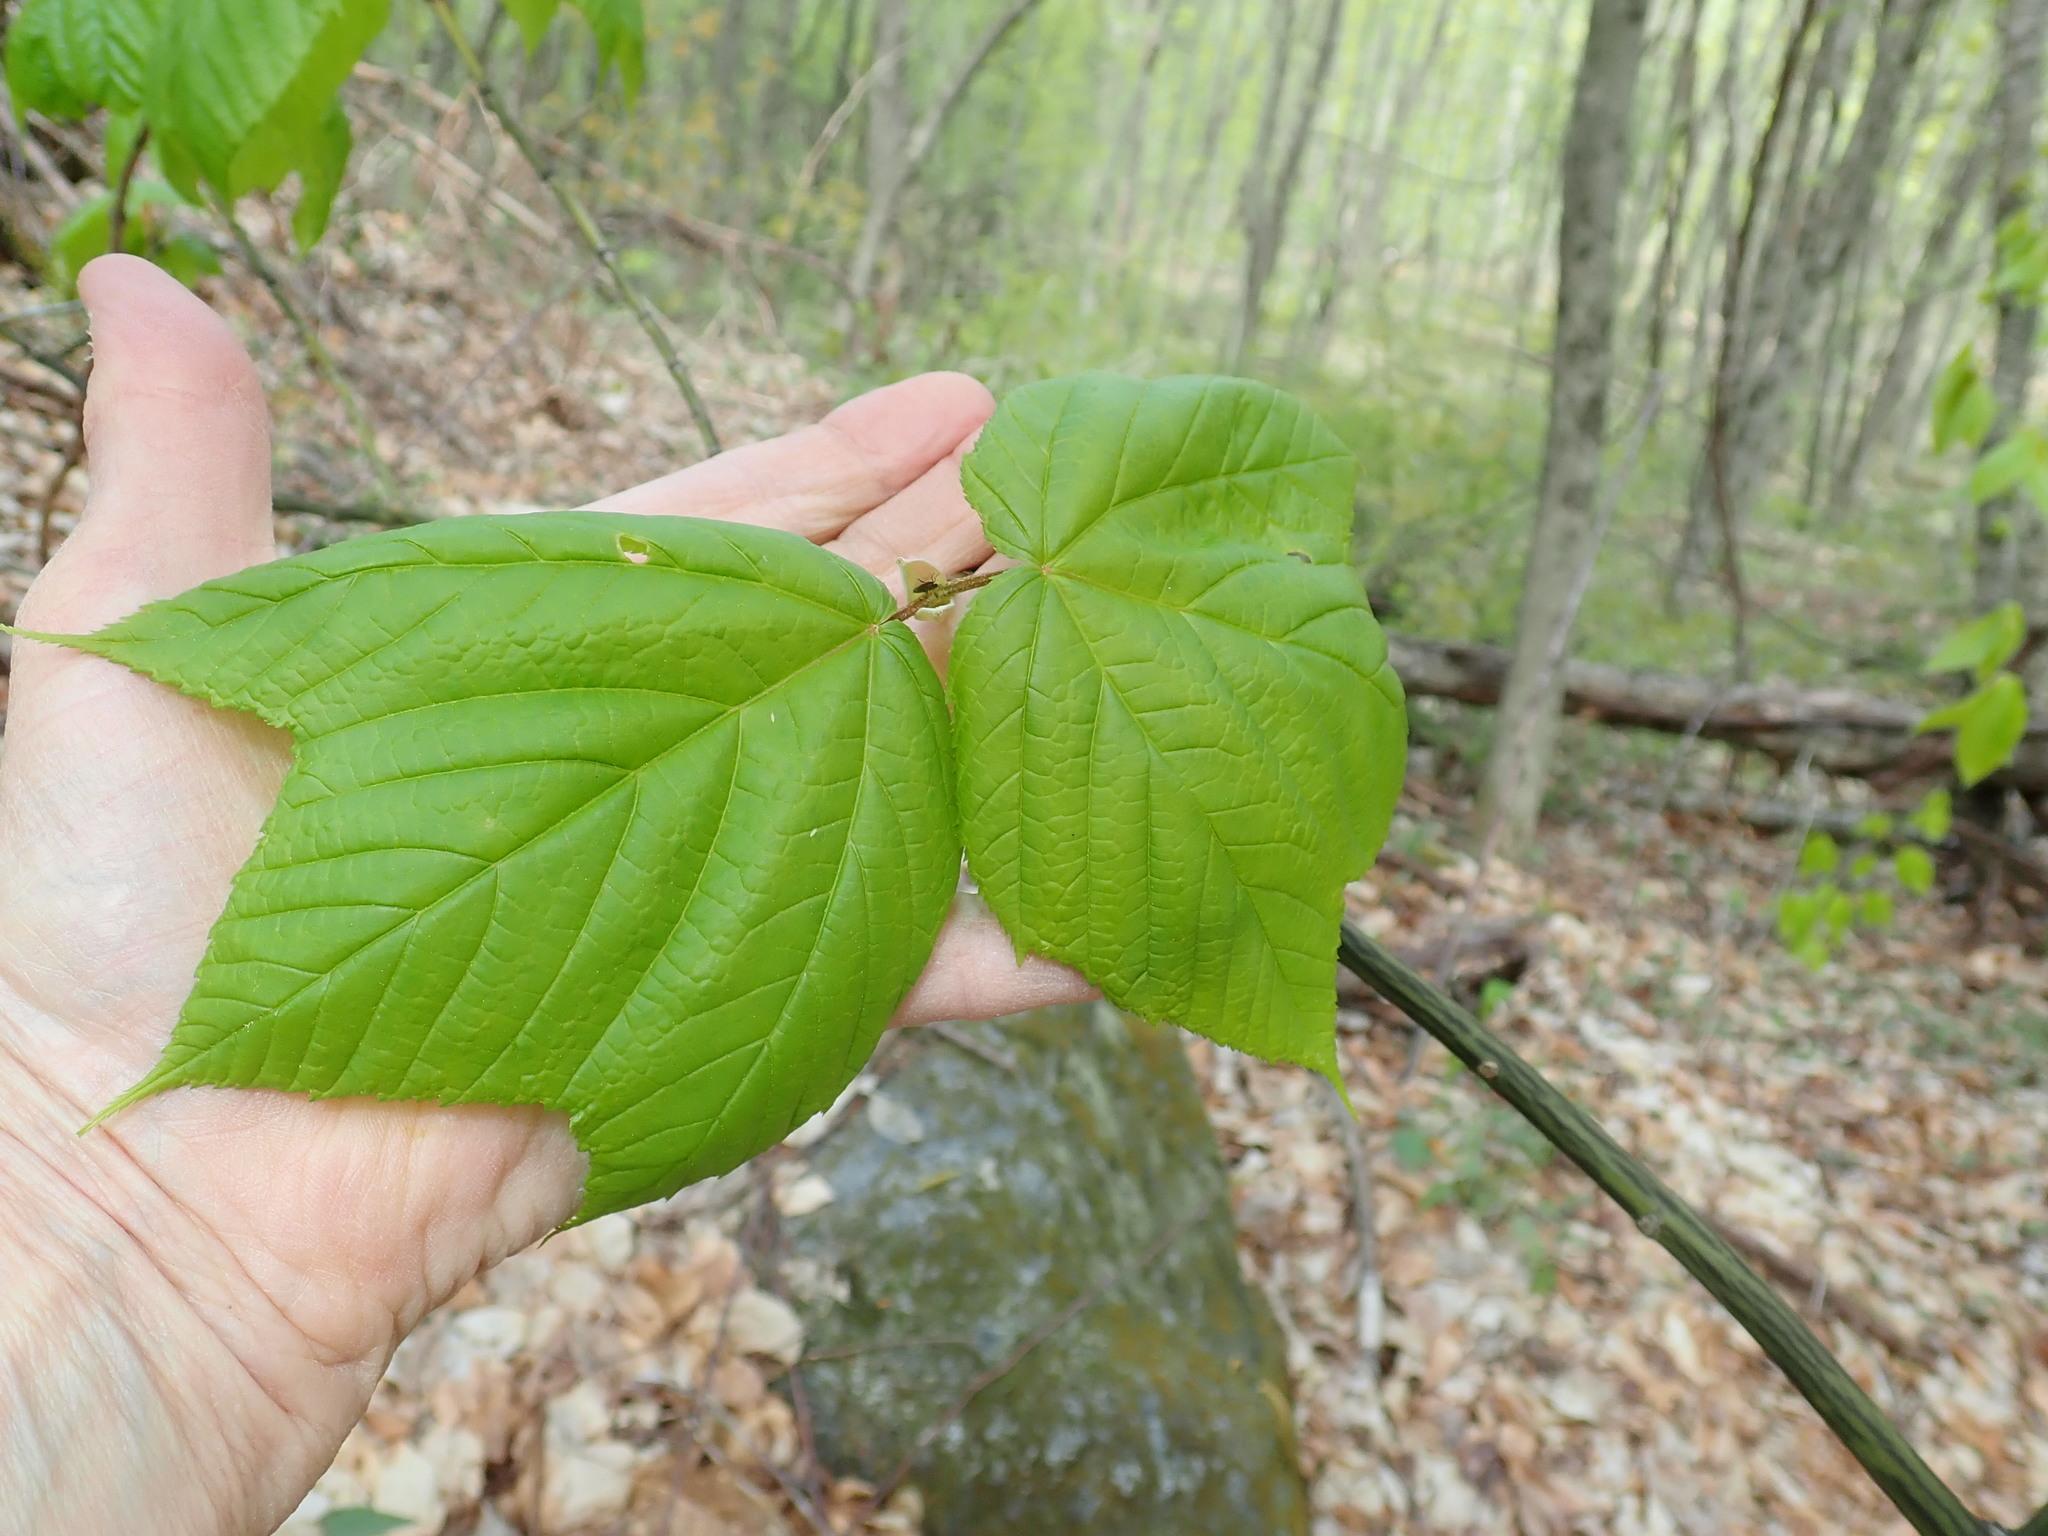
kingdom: Plantae
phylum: Tracheophyta
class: Magnoliopsida
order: Sapindales
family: Sapindaceae
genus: Acer
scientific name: Acer pensylvanicum
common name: Moosewood
